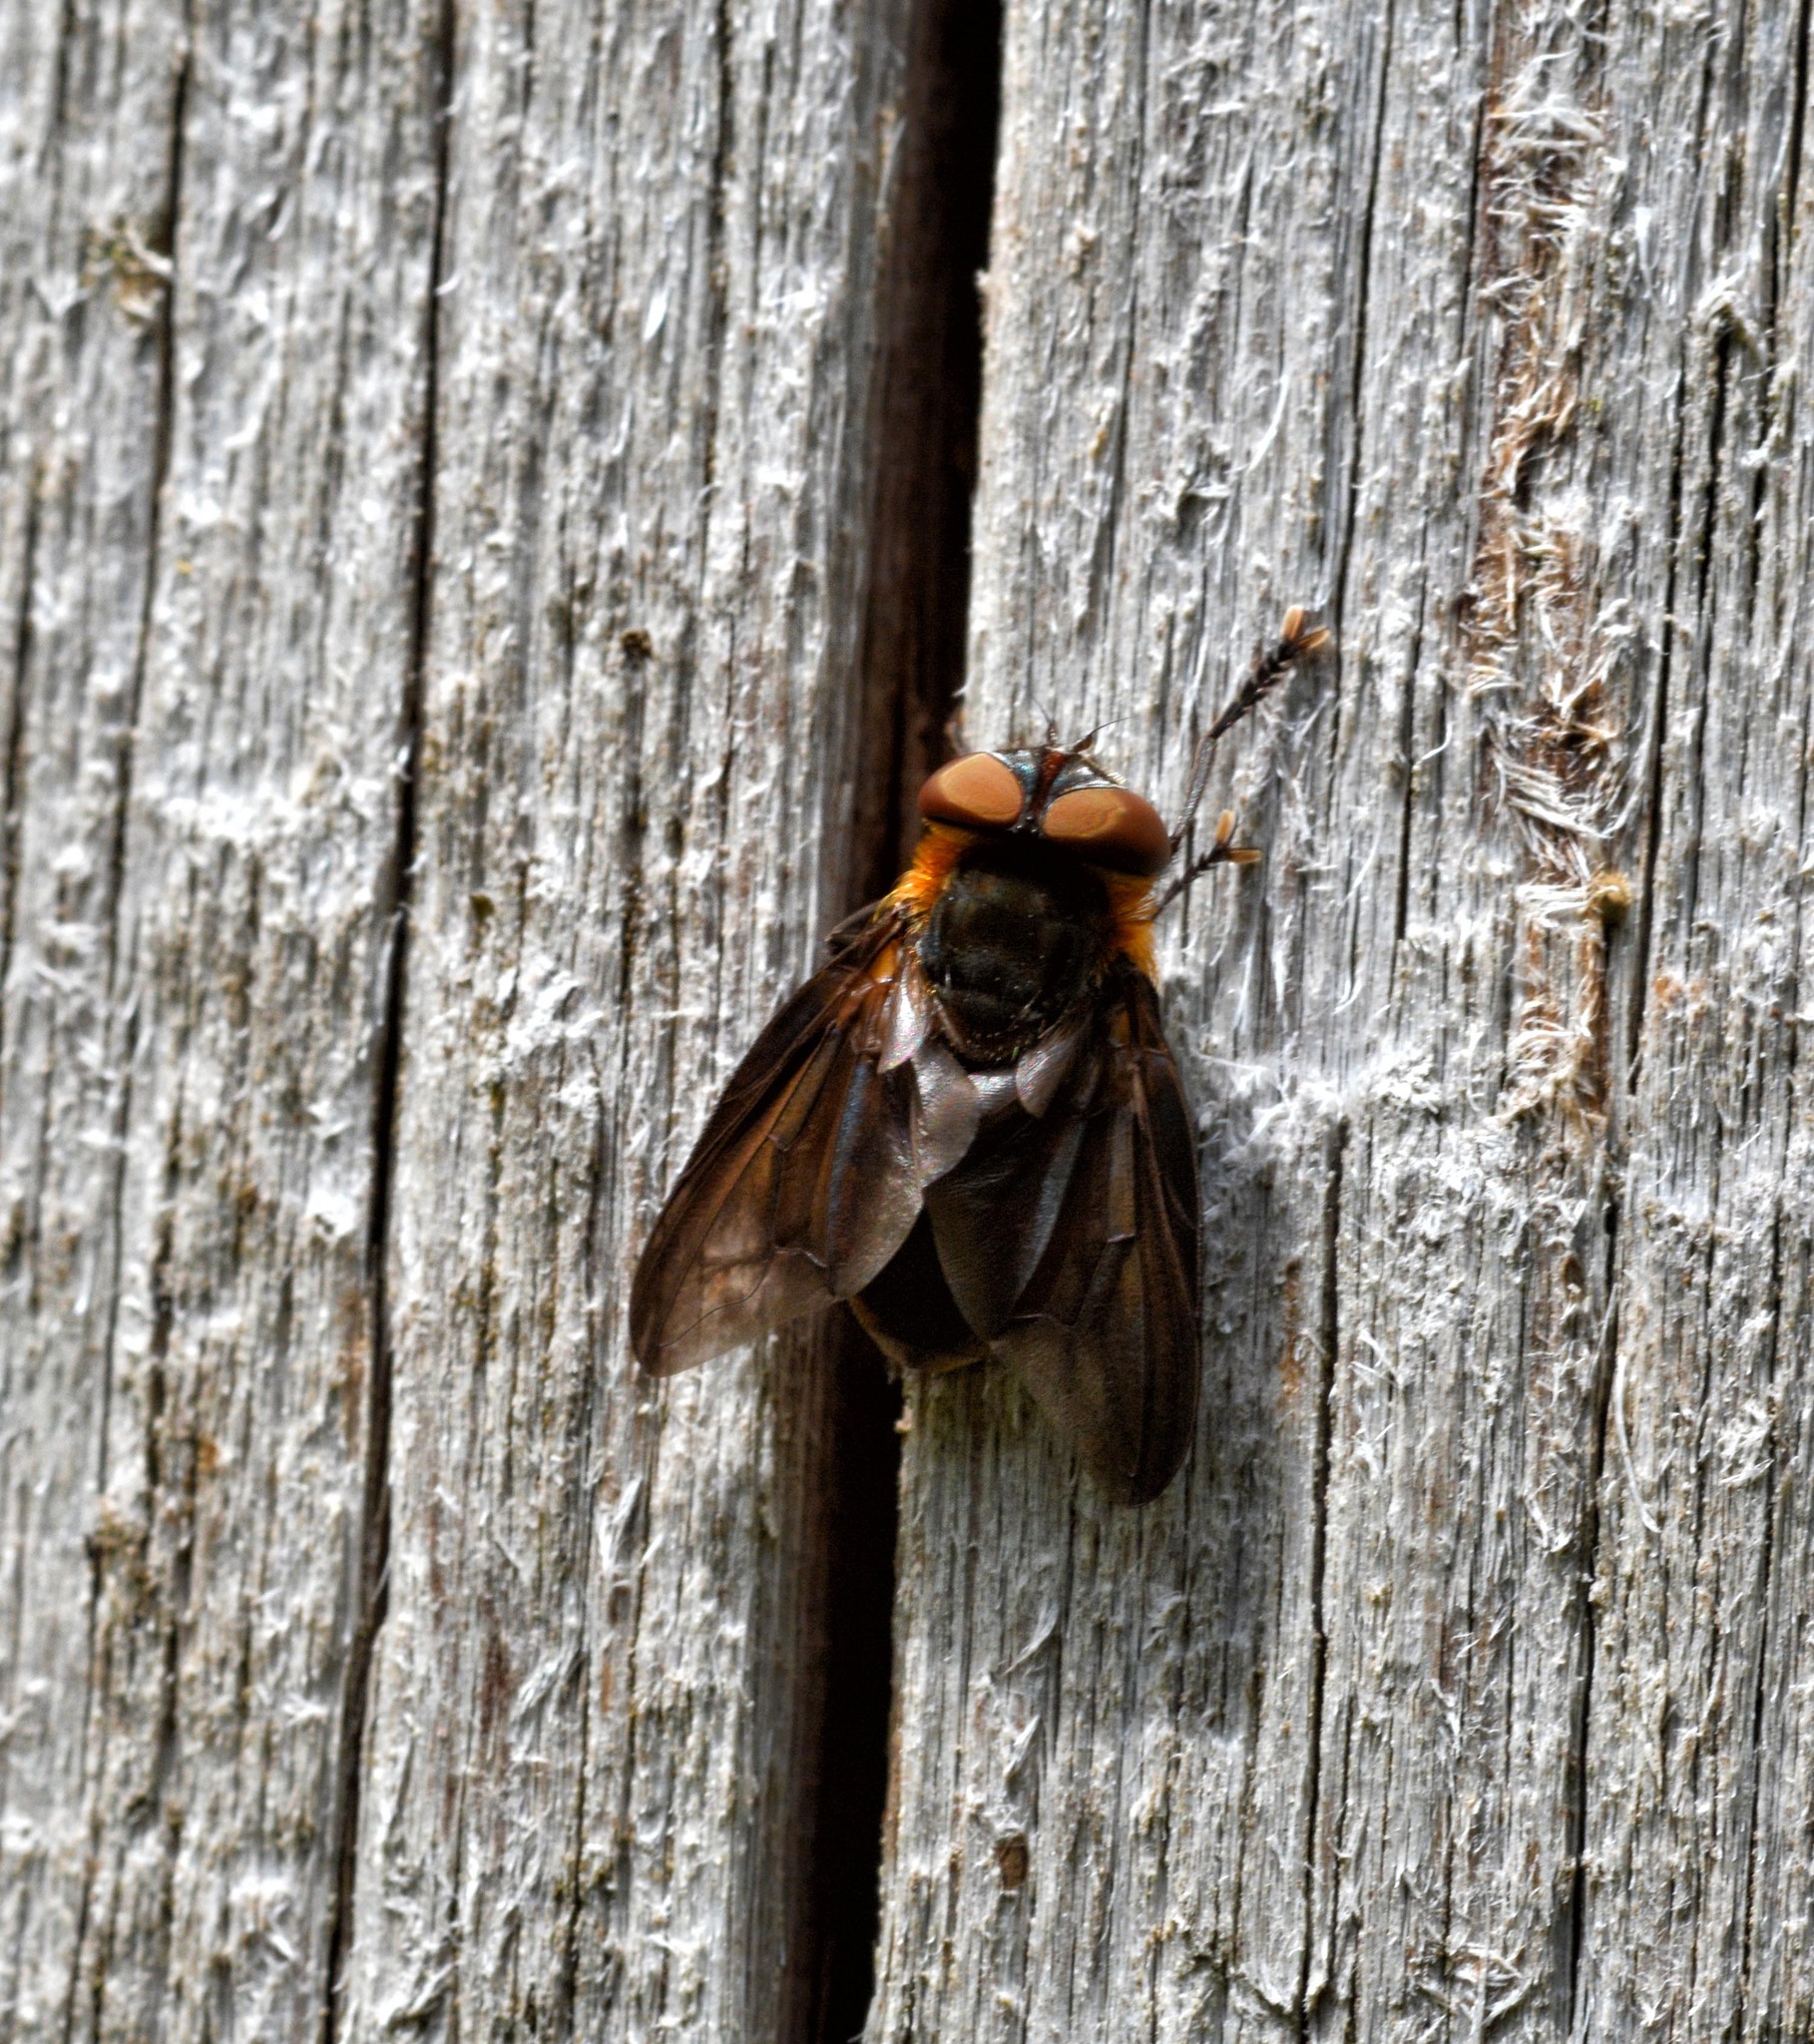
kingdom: Animalia
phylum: Arthropoda
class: Insecta
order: Diptera
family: Tachinidae
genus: Phasia
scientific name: Phasia hemiptera
